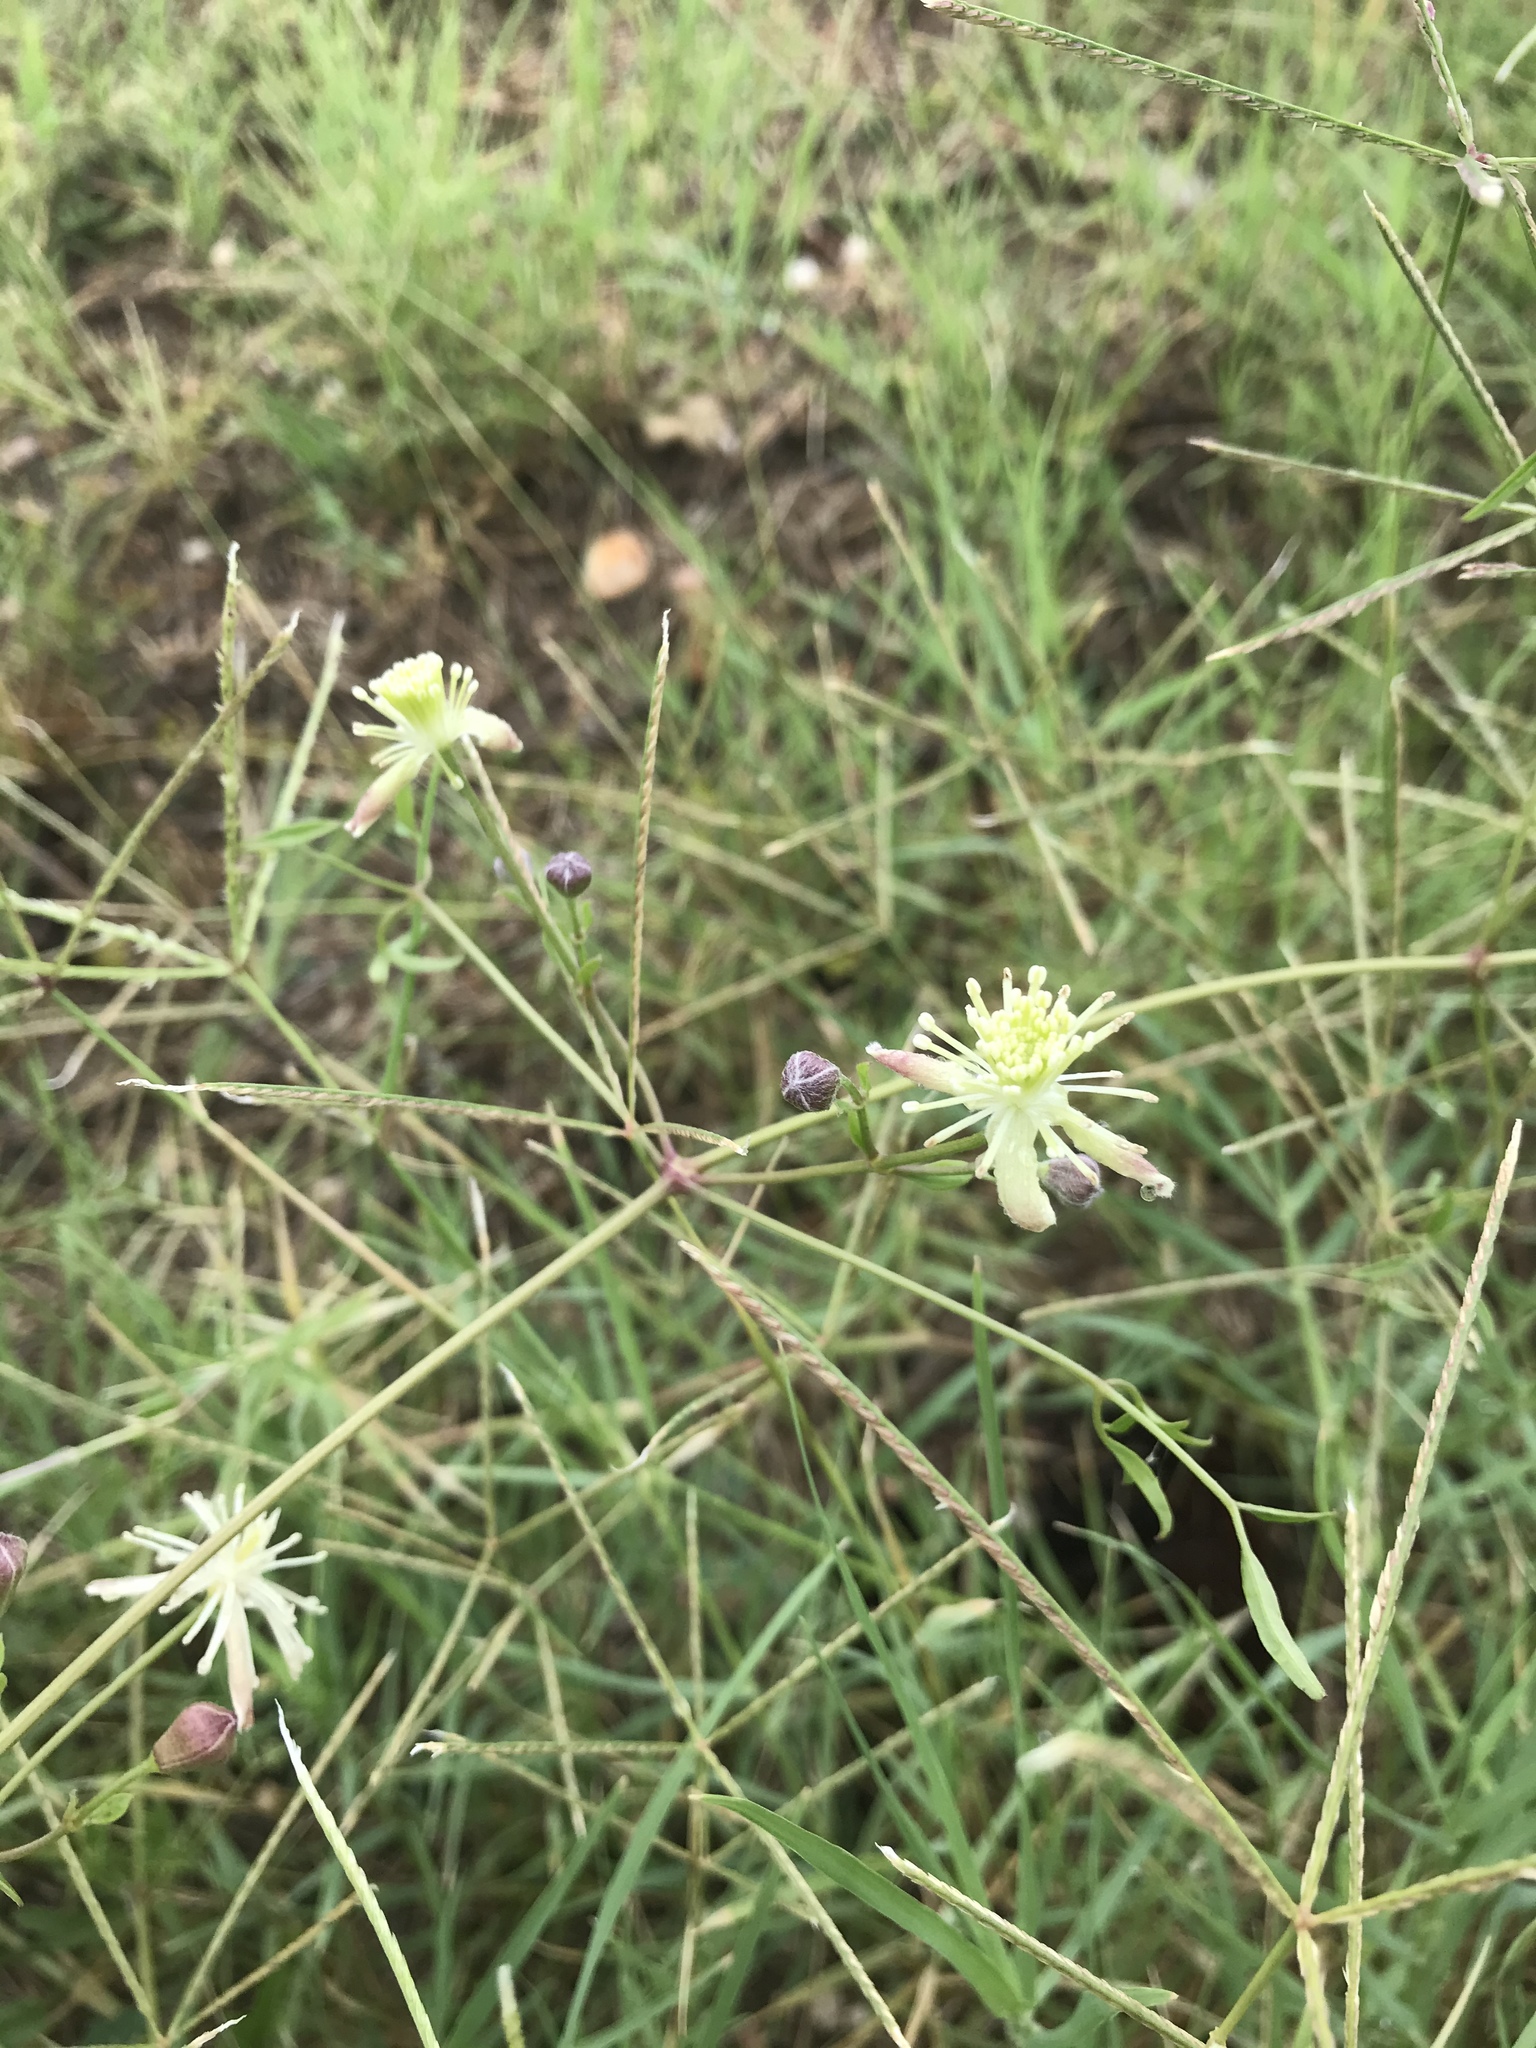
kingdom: Plantae
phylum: Tracheophyta
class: Magnoliopsida
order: Ranunculales
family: Ranunculaceae
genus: Clematis
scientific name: Clematis drummondii
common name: Texas virgin's bower
